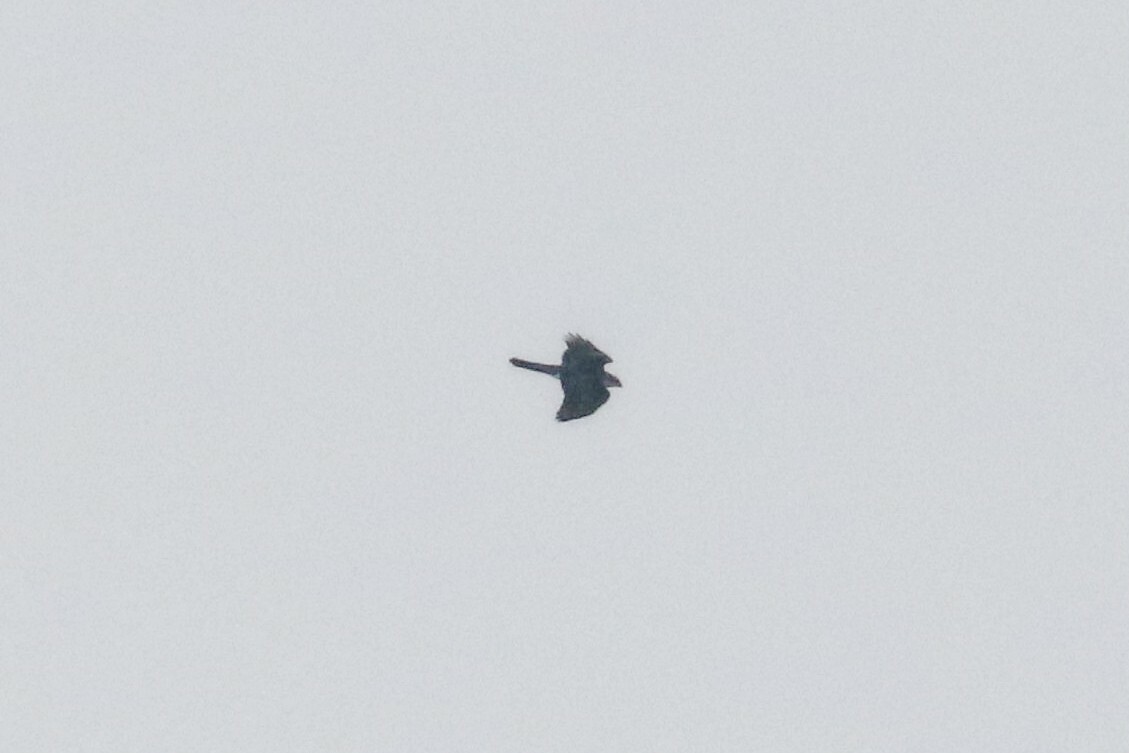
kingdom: Animalia
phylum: Chordata
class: Aves
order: Accipitriformes
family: Accipitridae
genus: Accipiter
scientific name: Accipiter gentilis
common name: Northern goshawk
